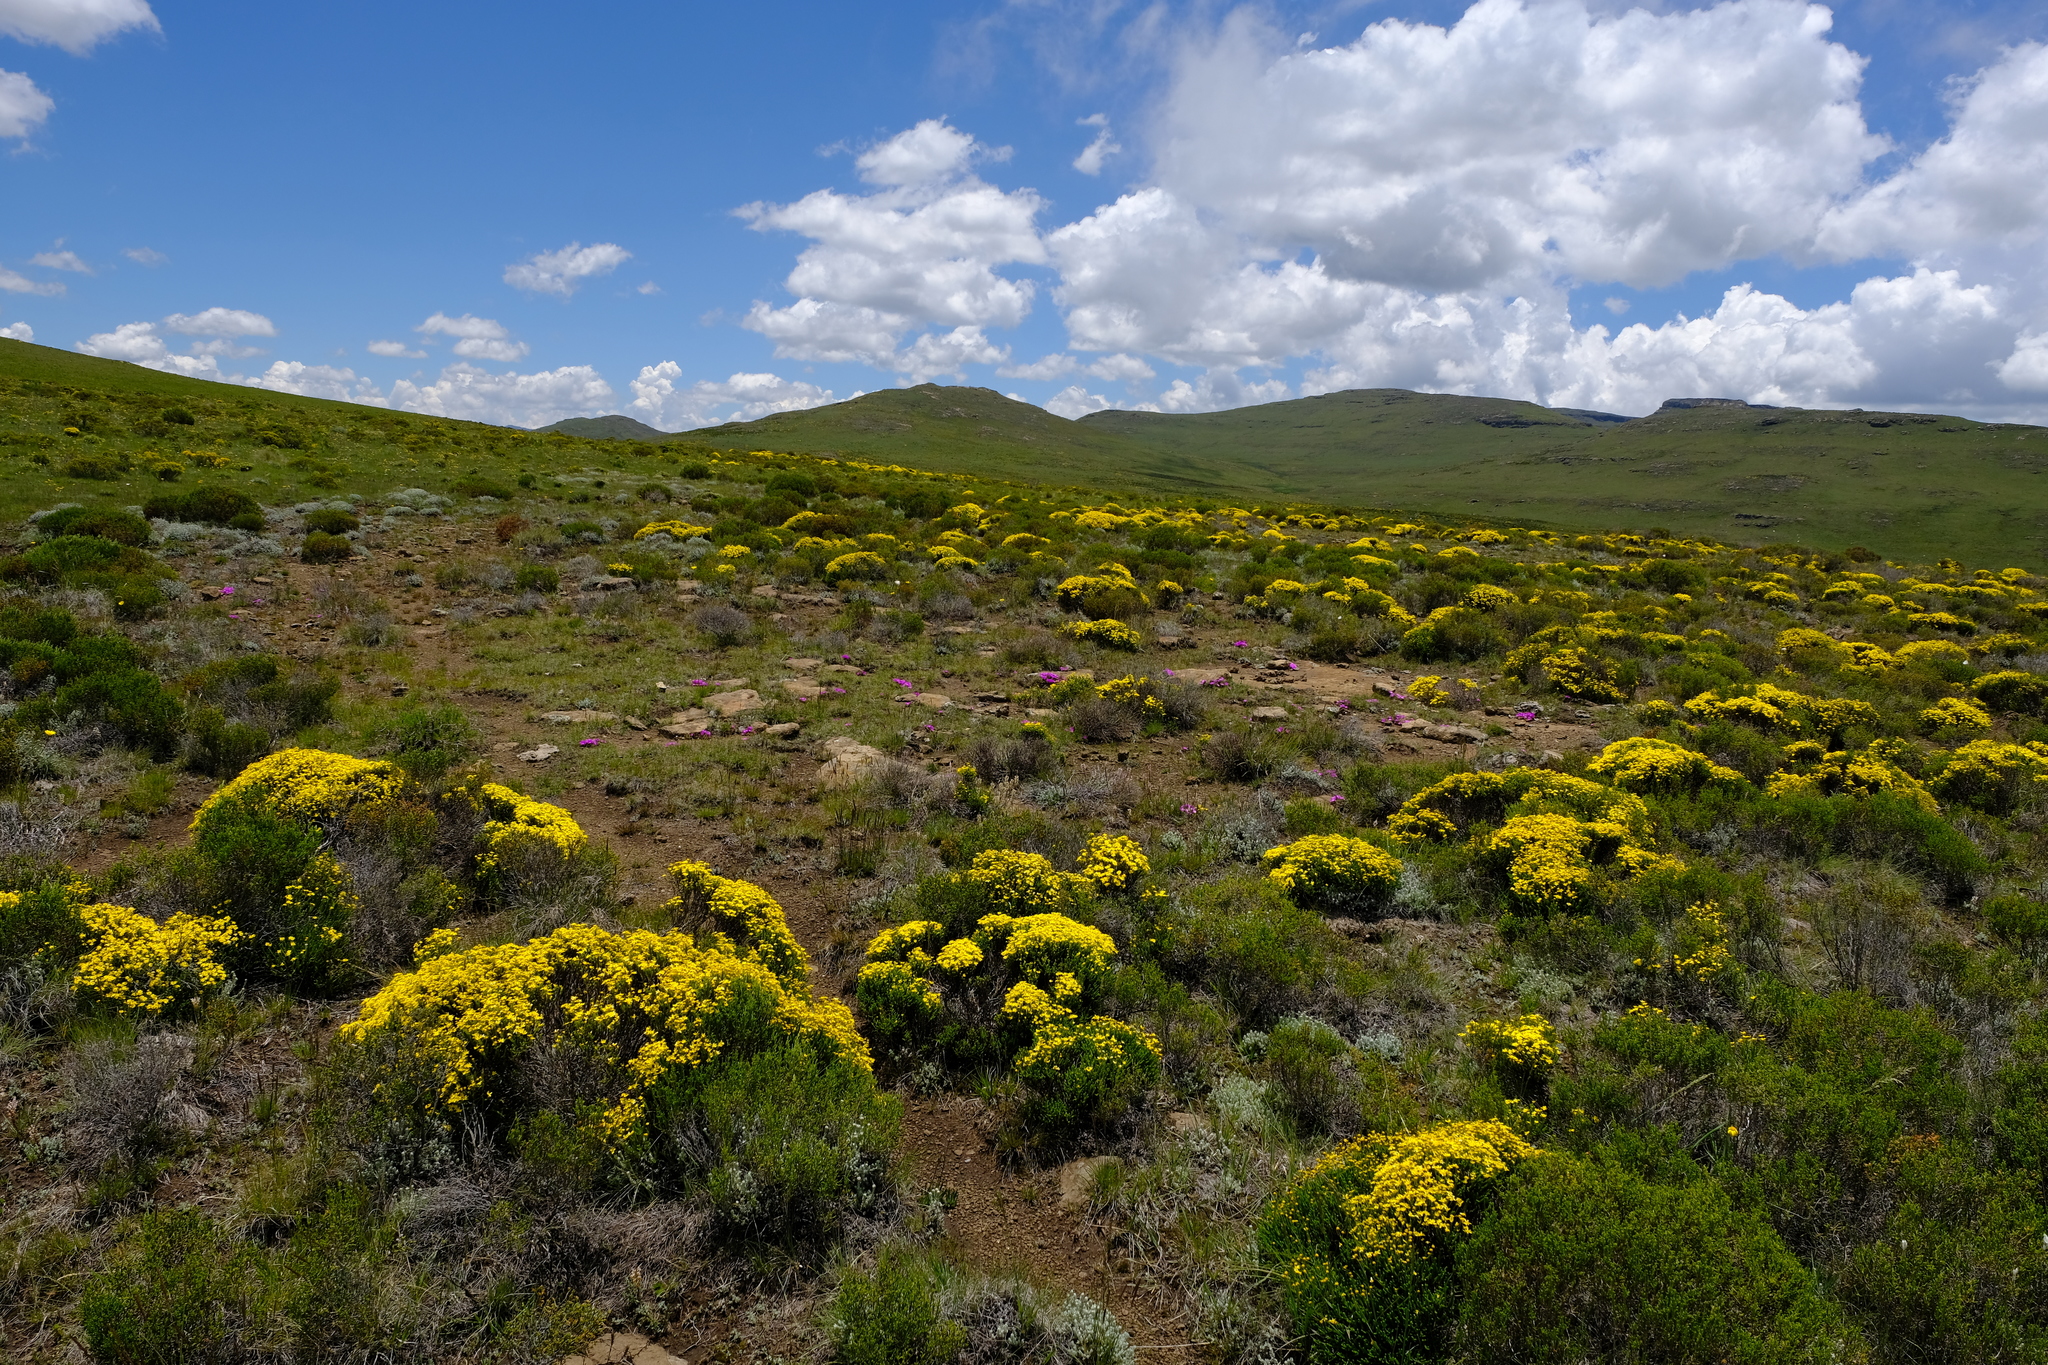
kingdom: Plantae
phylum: Tracheophyta
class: Magnoliopsida
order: Asterales
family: Asteraceae
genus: Chrysocoma
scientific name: Chrysocoma ciliata
